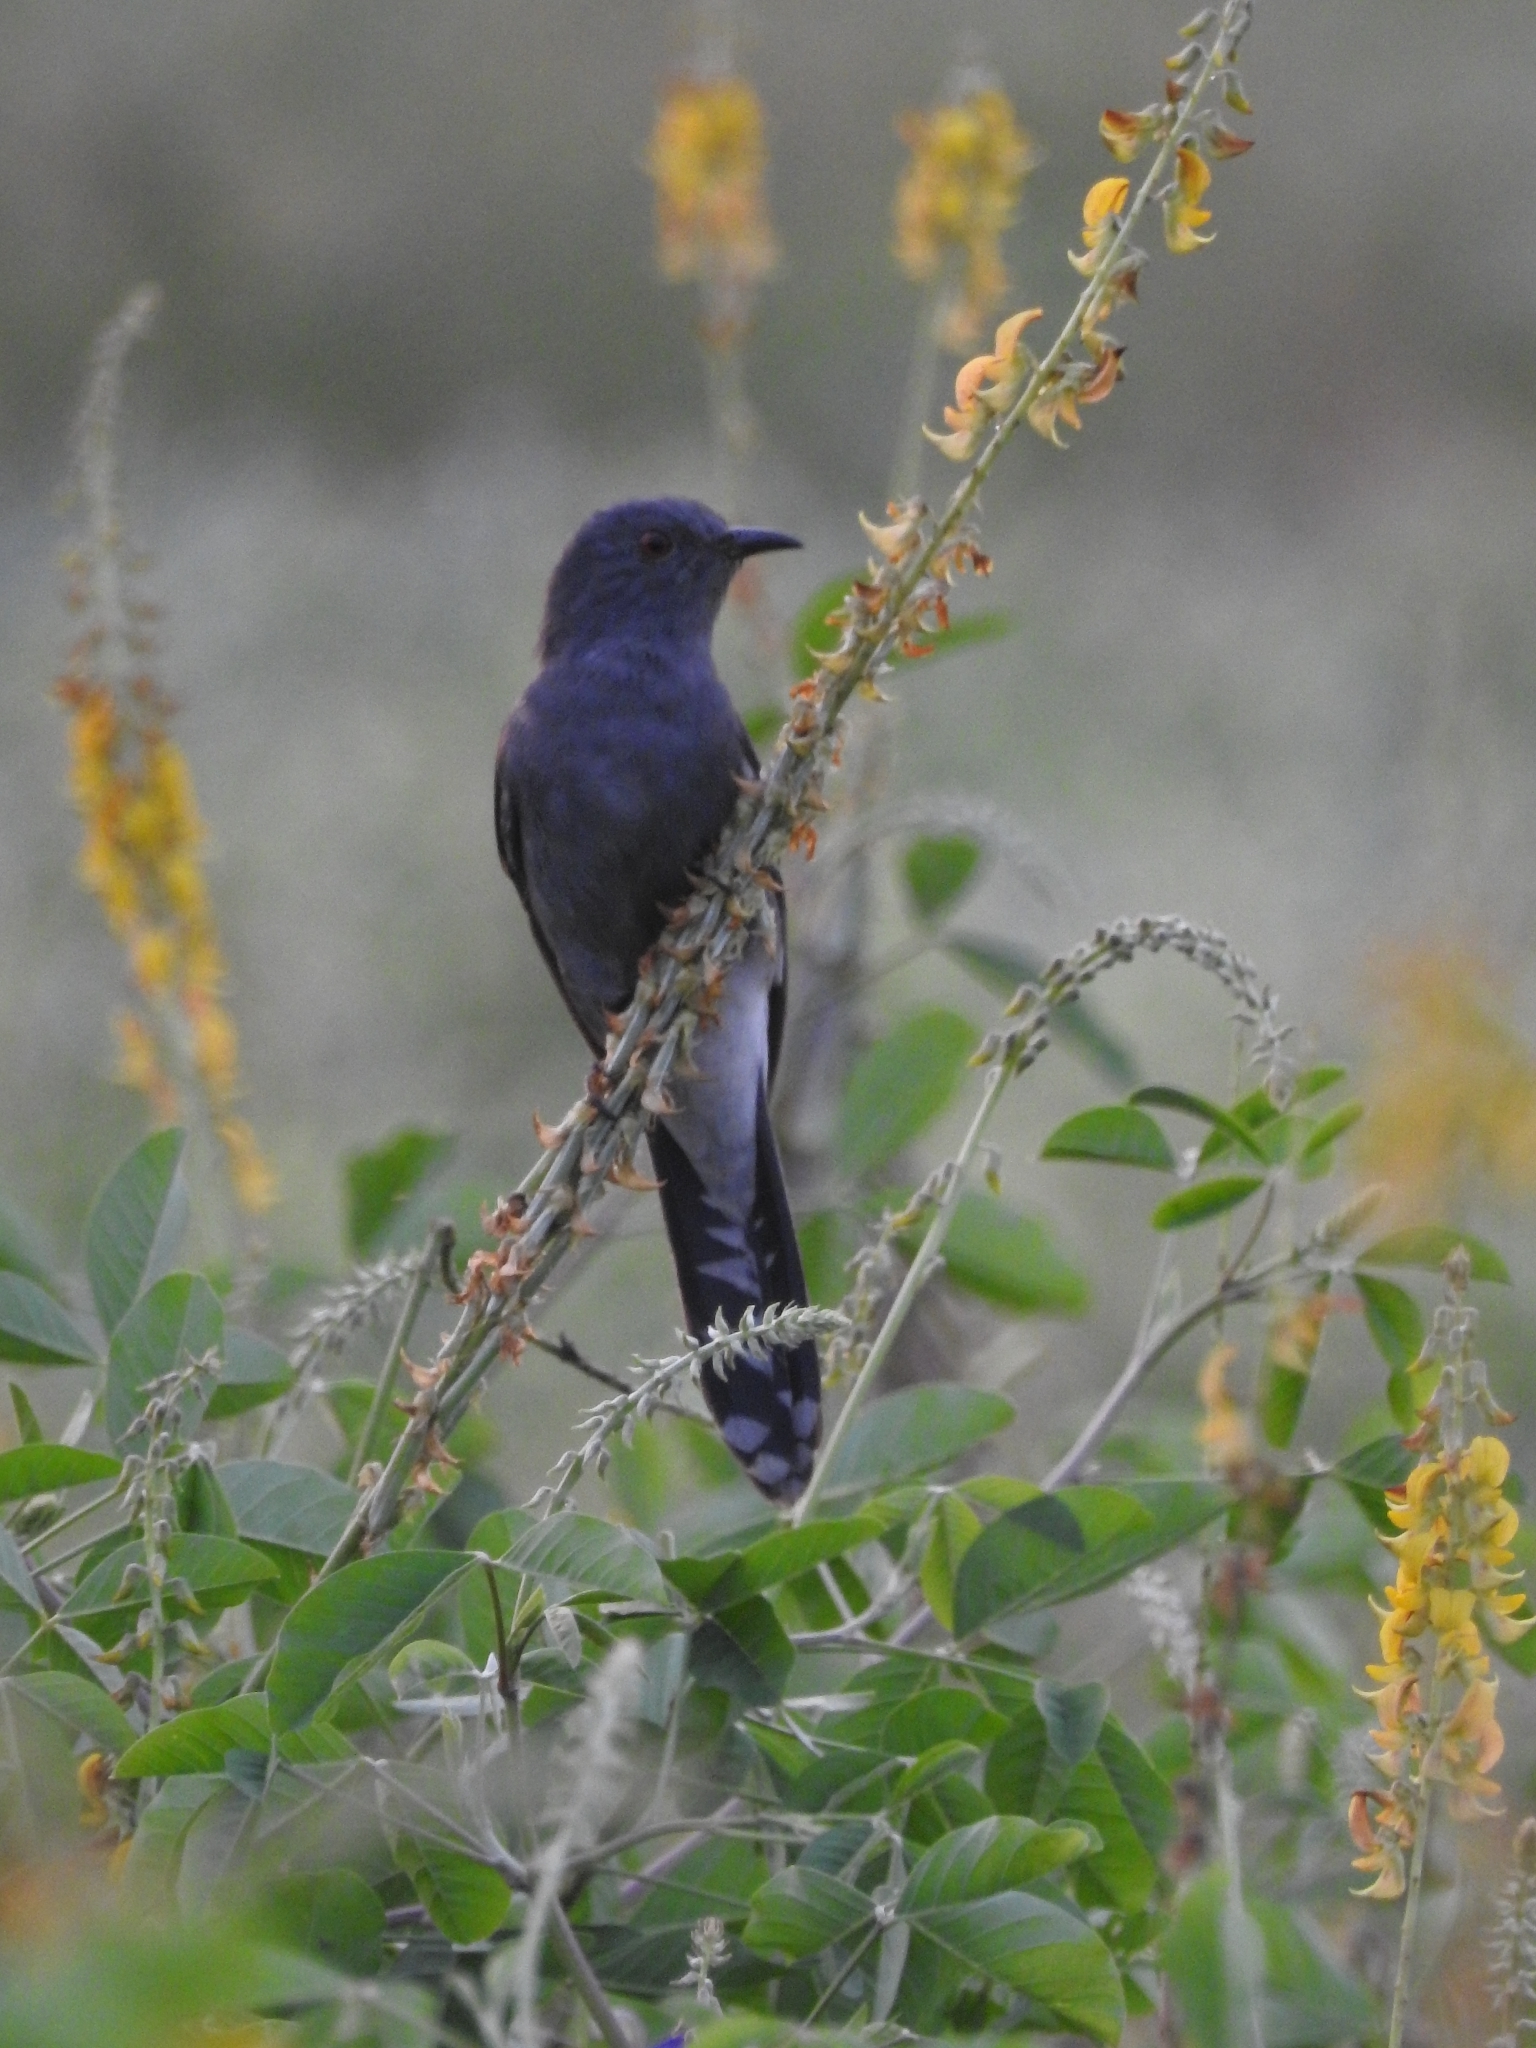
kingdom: Animalia
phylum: Chordata
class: Aves
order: Cuculiformes
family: Cuculidae
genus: Cacomantis
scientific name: Cacomantis passerinus
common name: Grey-bellied cuckoo
